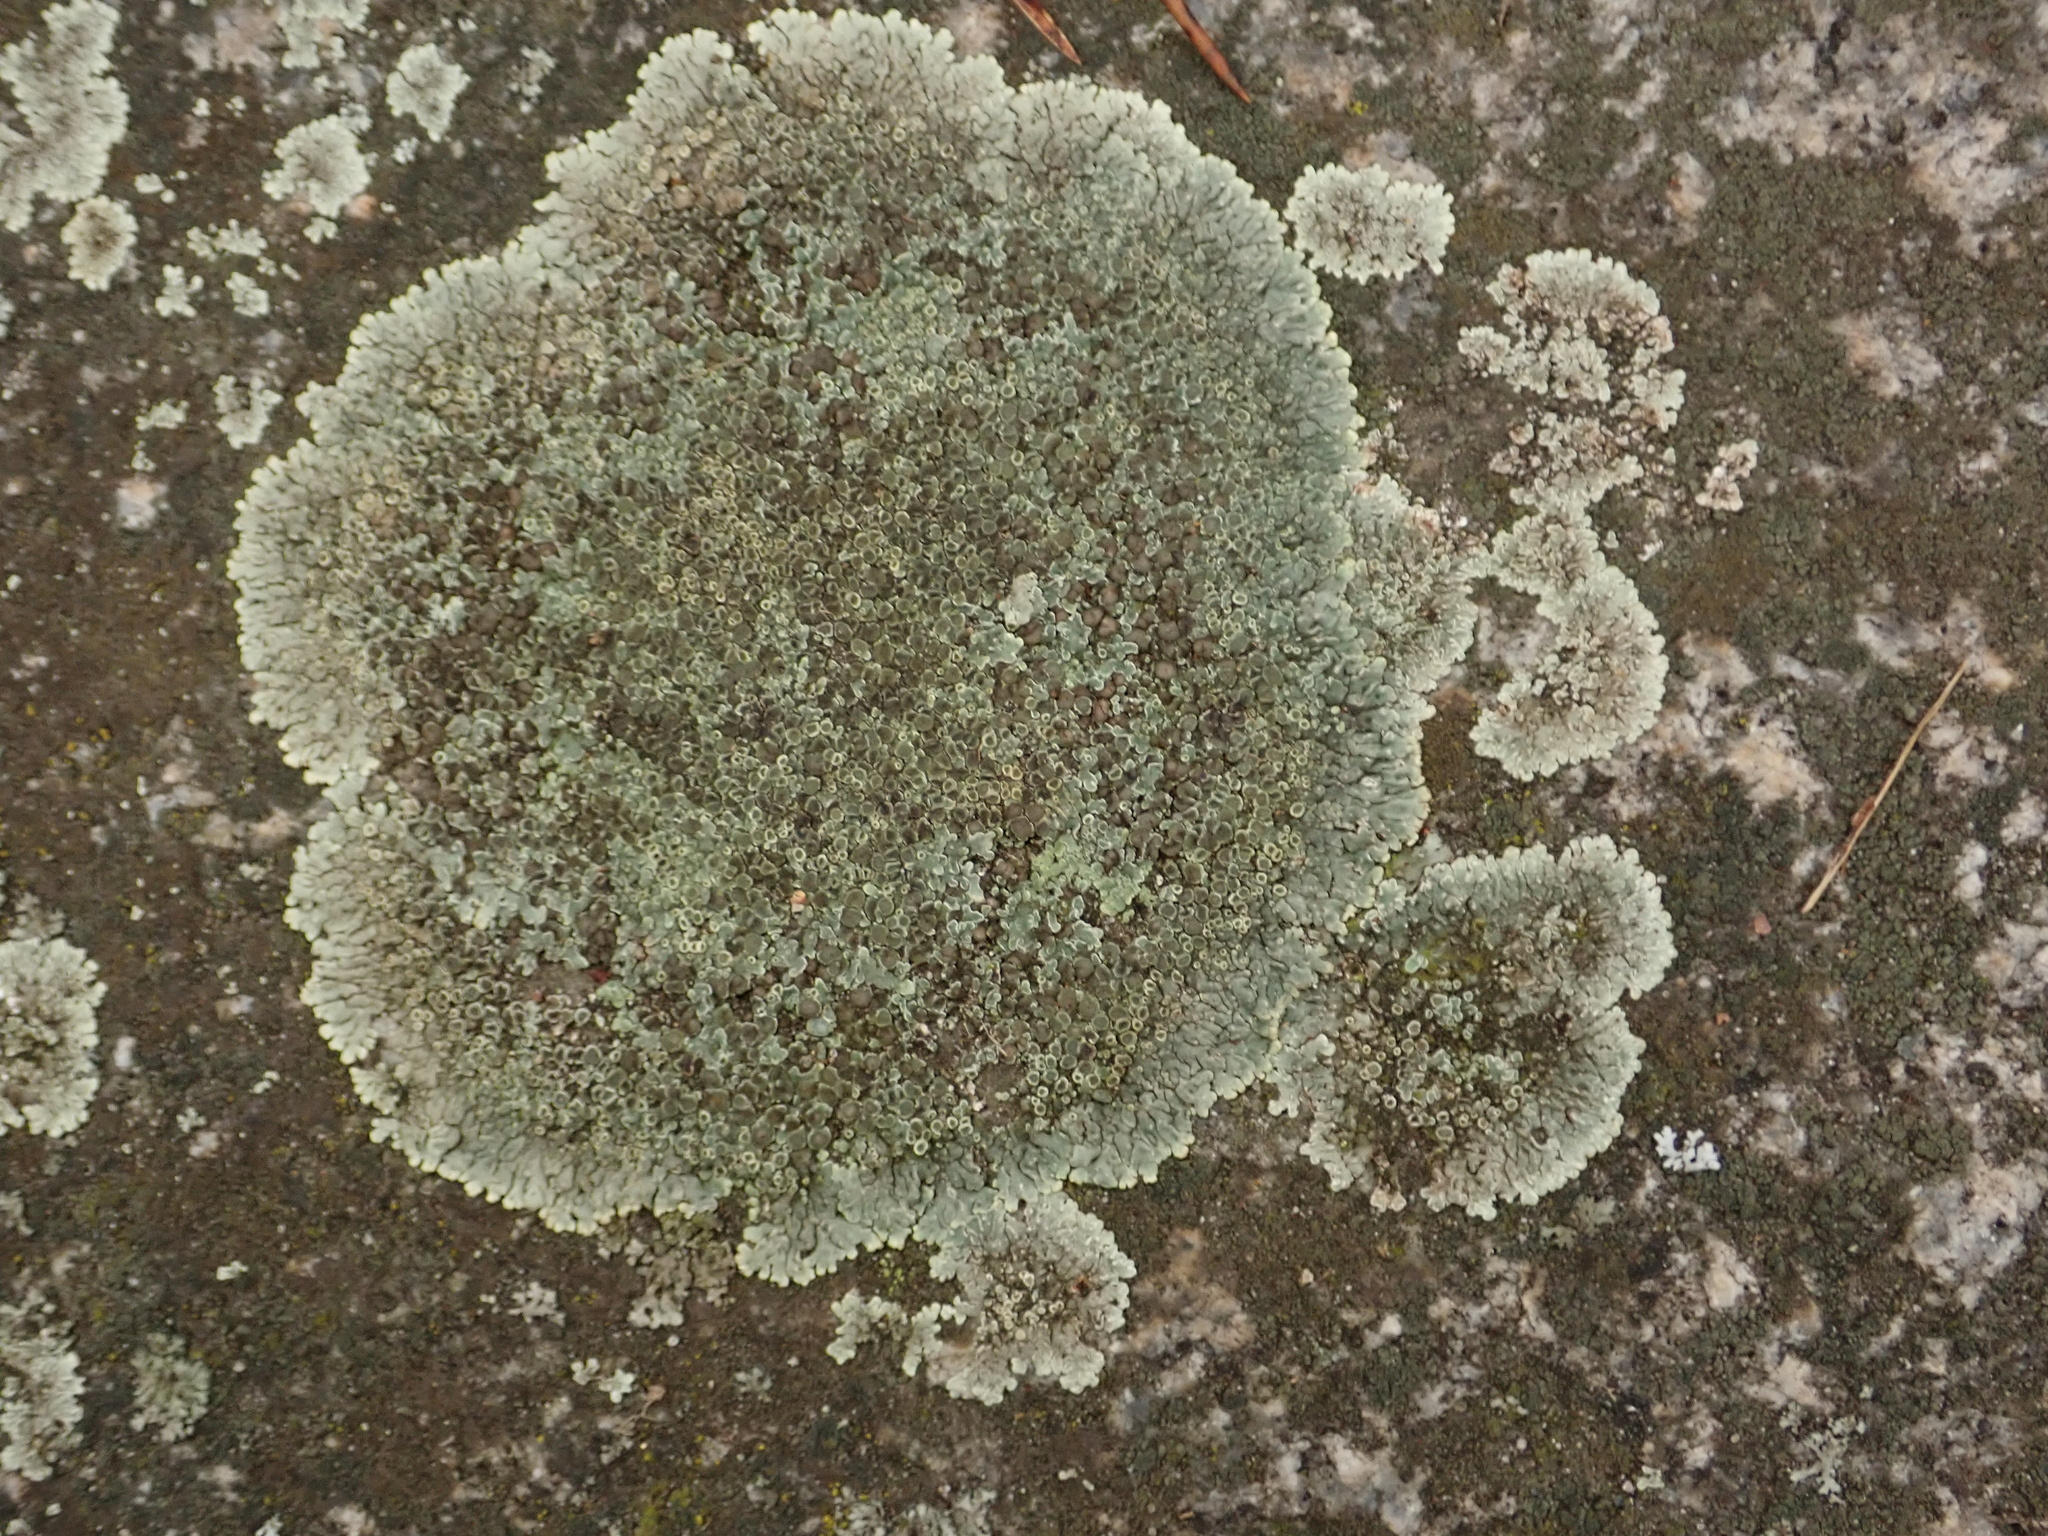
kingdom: Fungi
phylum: Ascomycota
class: Lecanoromycetes
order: Lecanorales
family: Lecanoraceae
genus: Protoparmeliopsis
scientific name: Protoparmeliopsis muralis
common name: Stonewall rim lichen
